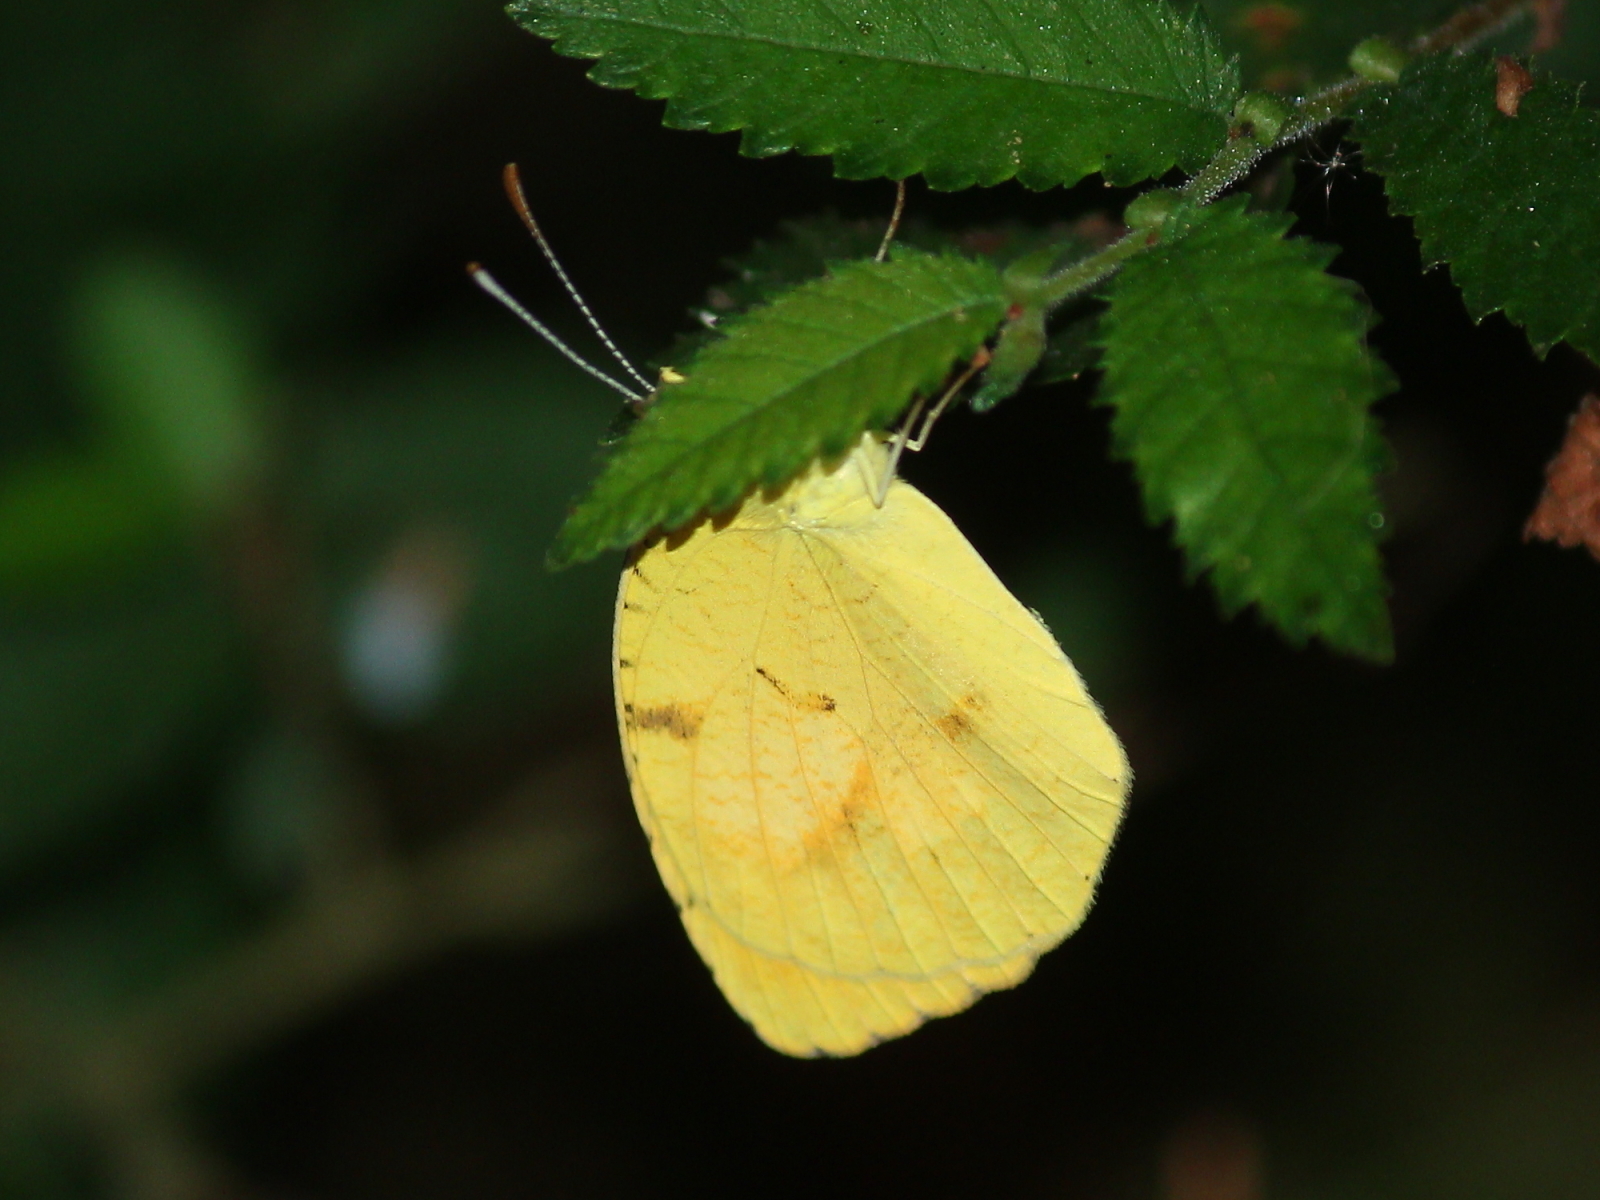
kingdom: Animalia
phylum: Arthropoda
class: Insecta
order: Lepidoptera
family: Pieridae
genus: Abaeis
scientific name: Abaeis nicippe
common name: Sleepy orange
